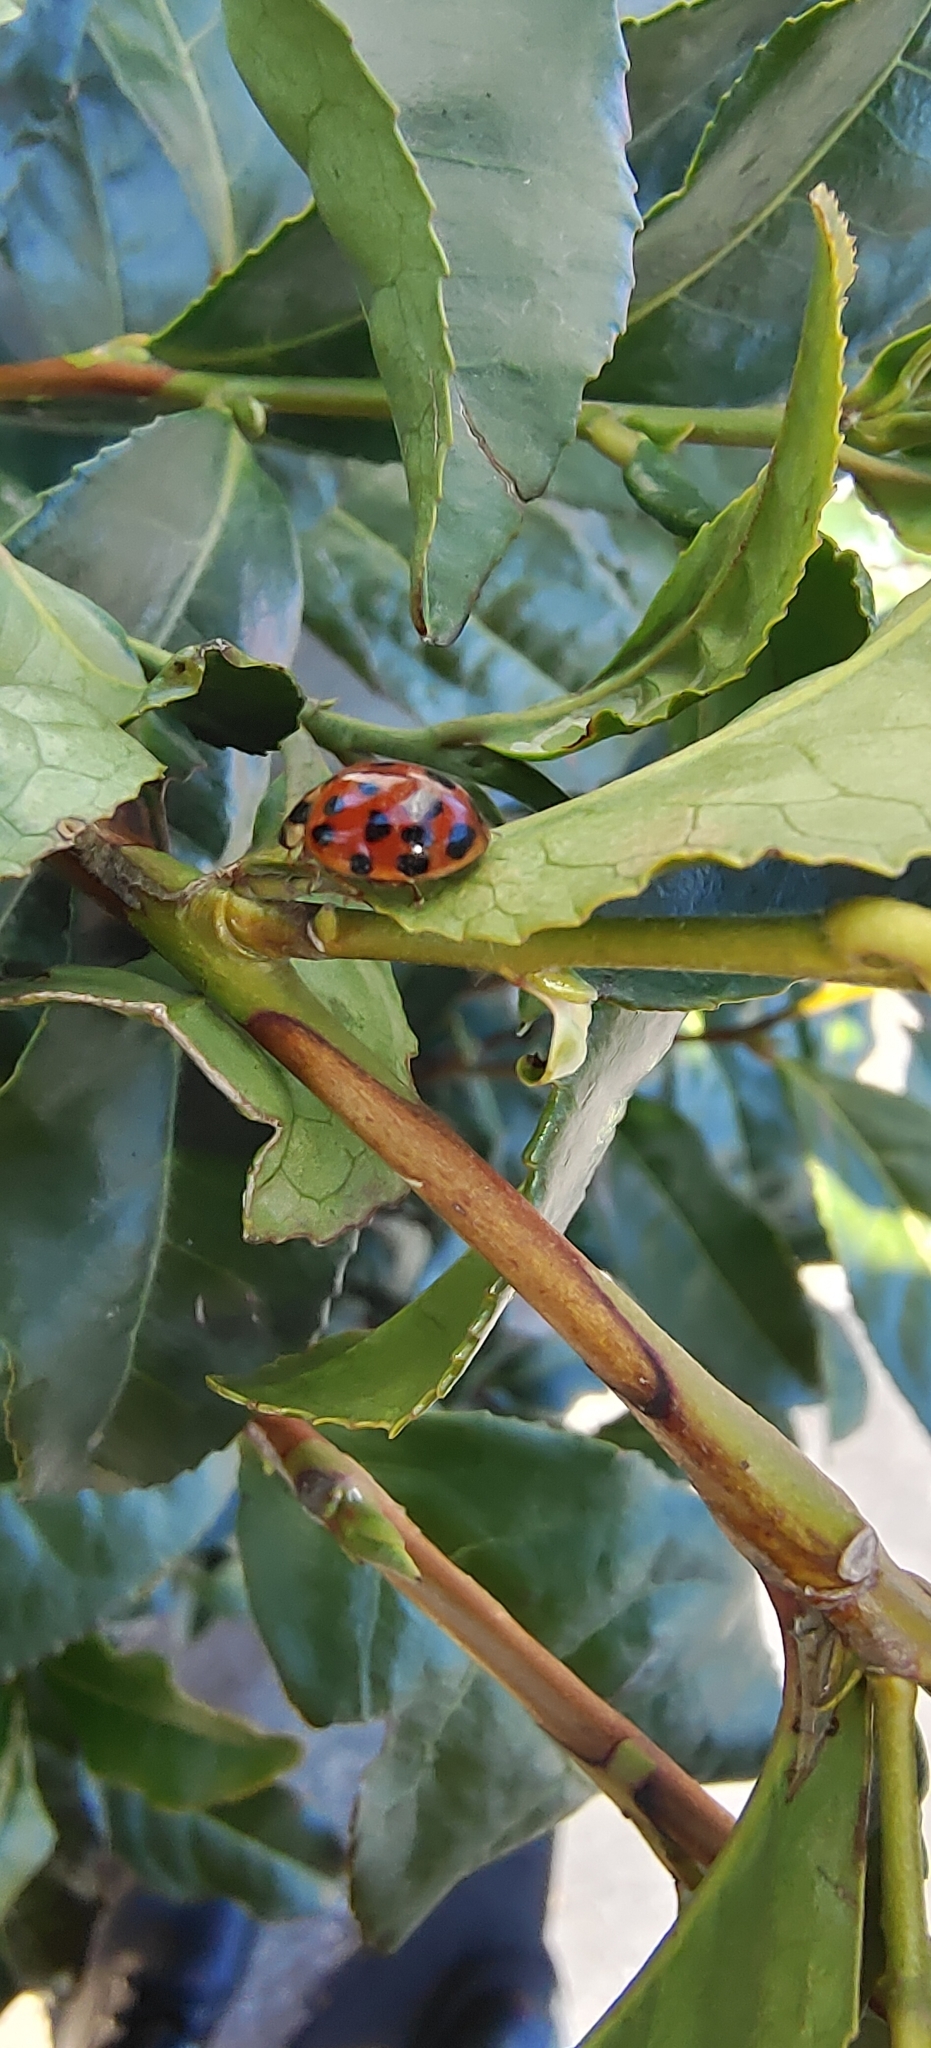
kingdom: Animalia
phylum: Arthropoda
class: Insecta
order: Coleoptera
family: Coccinellidae
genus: Harmonia
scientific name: Harmonia axyridis
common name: Harlequin ladybird
